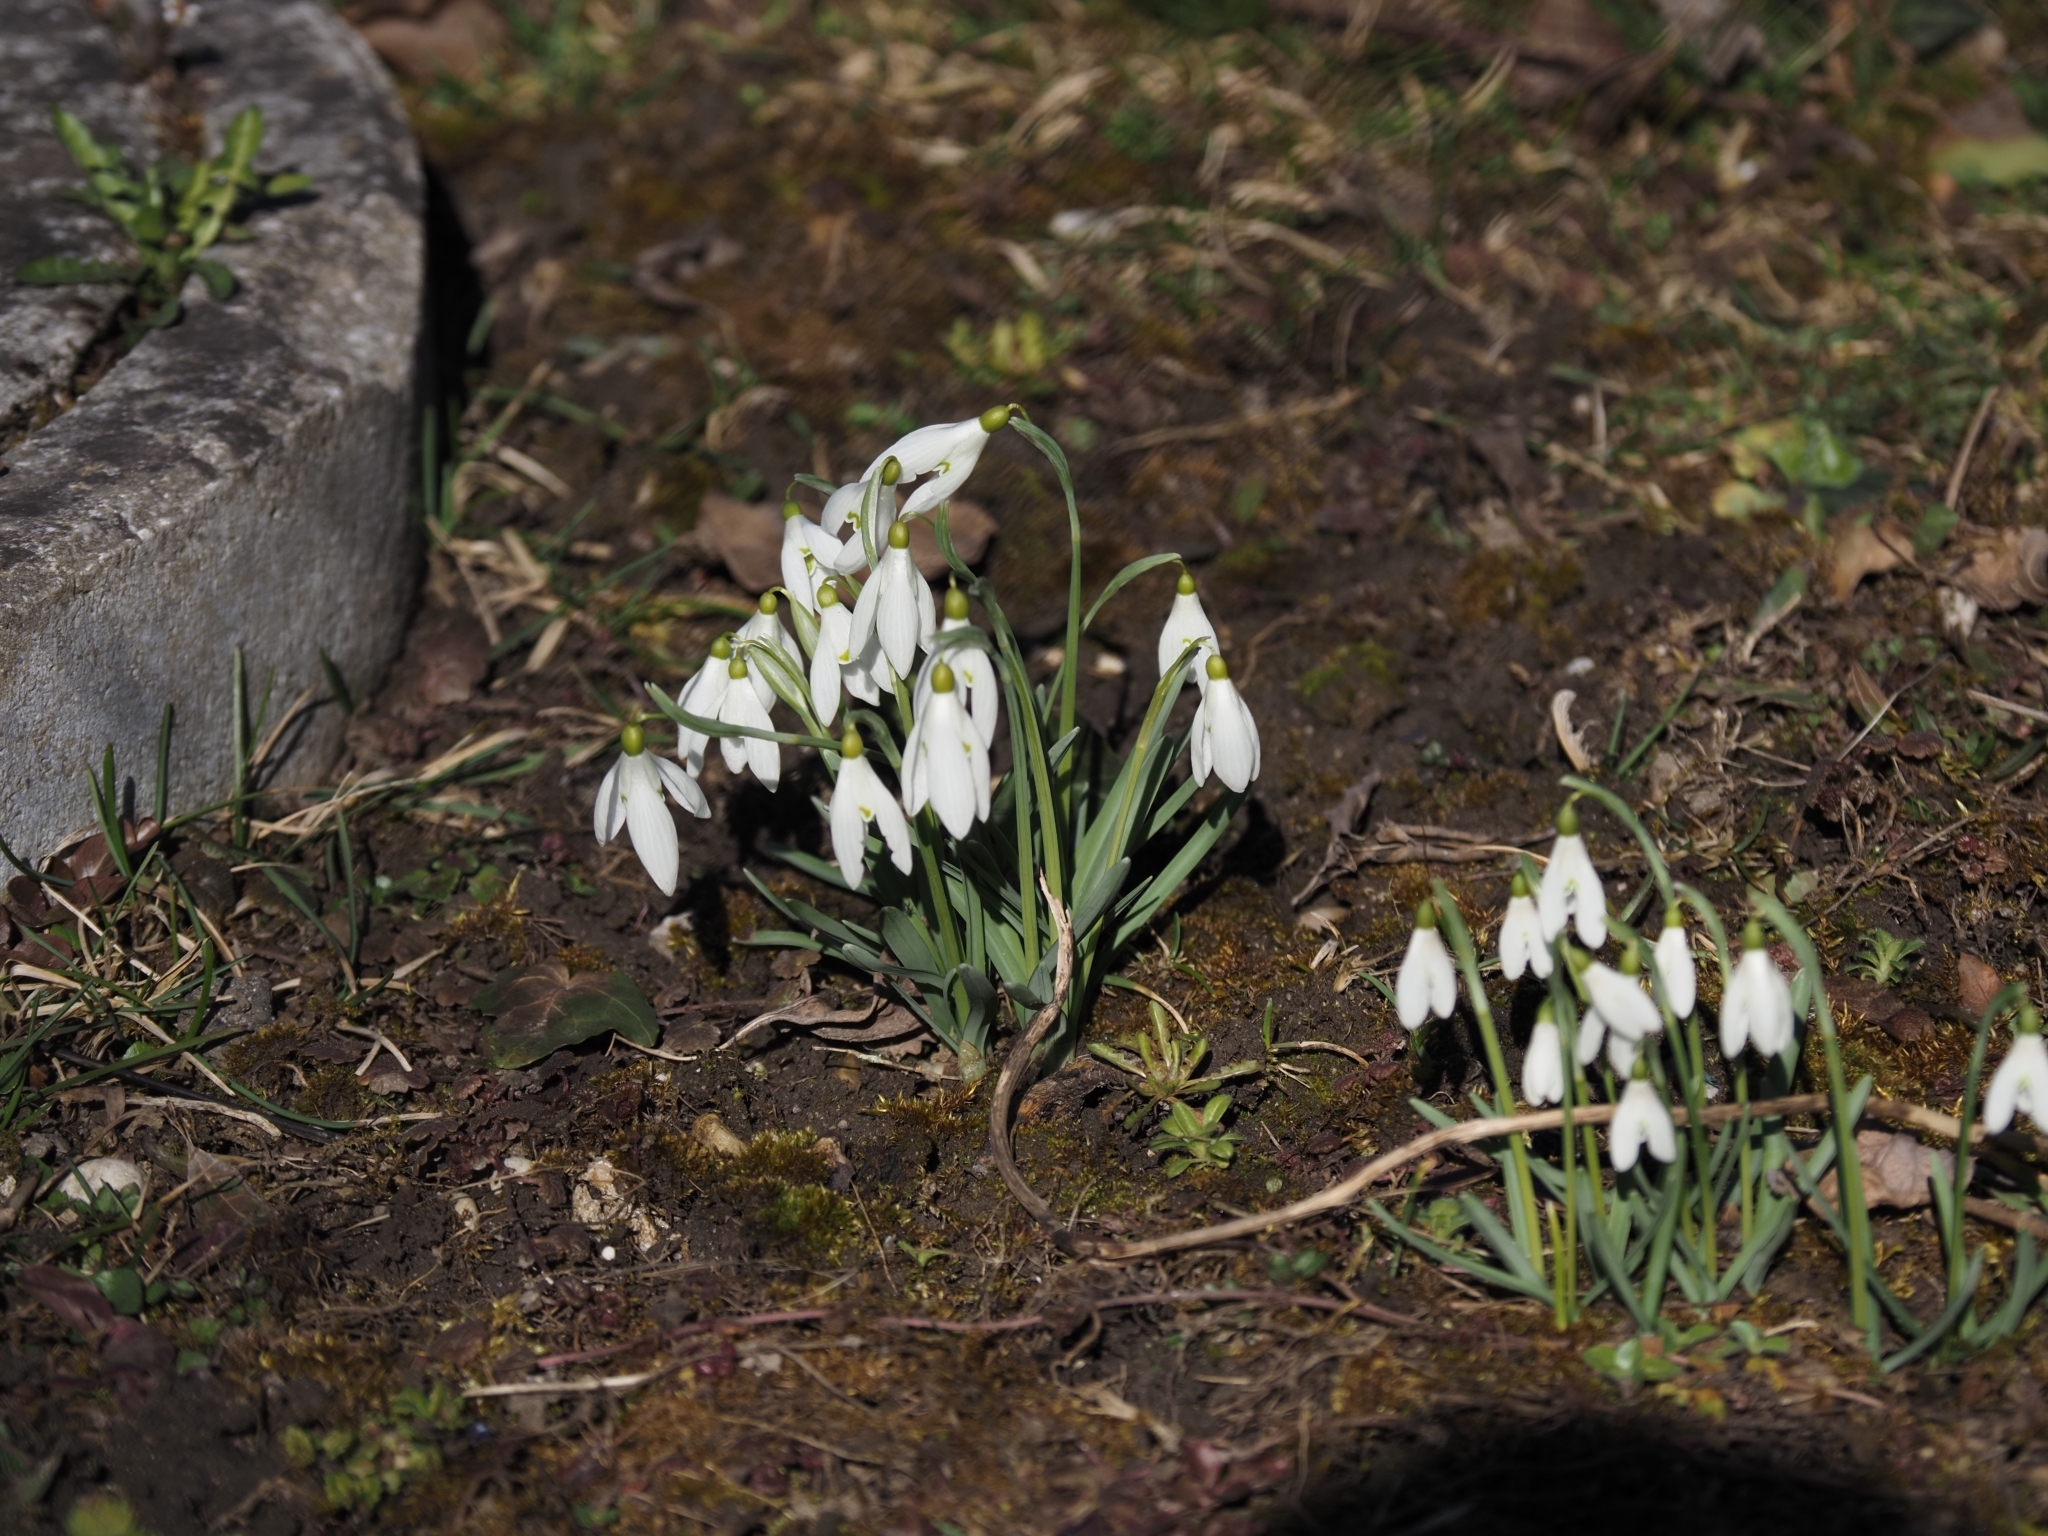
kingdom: Plantae
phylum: Tracheophyta
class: Liliopsida
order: Asparagales
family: Amaryllidaceae
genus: Galanthus
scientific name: Galanthus nivalis
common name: Snowdrop
